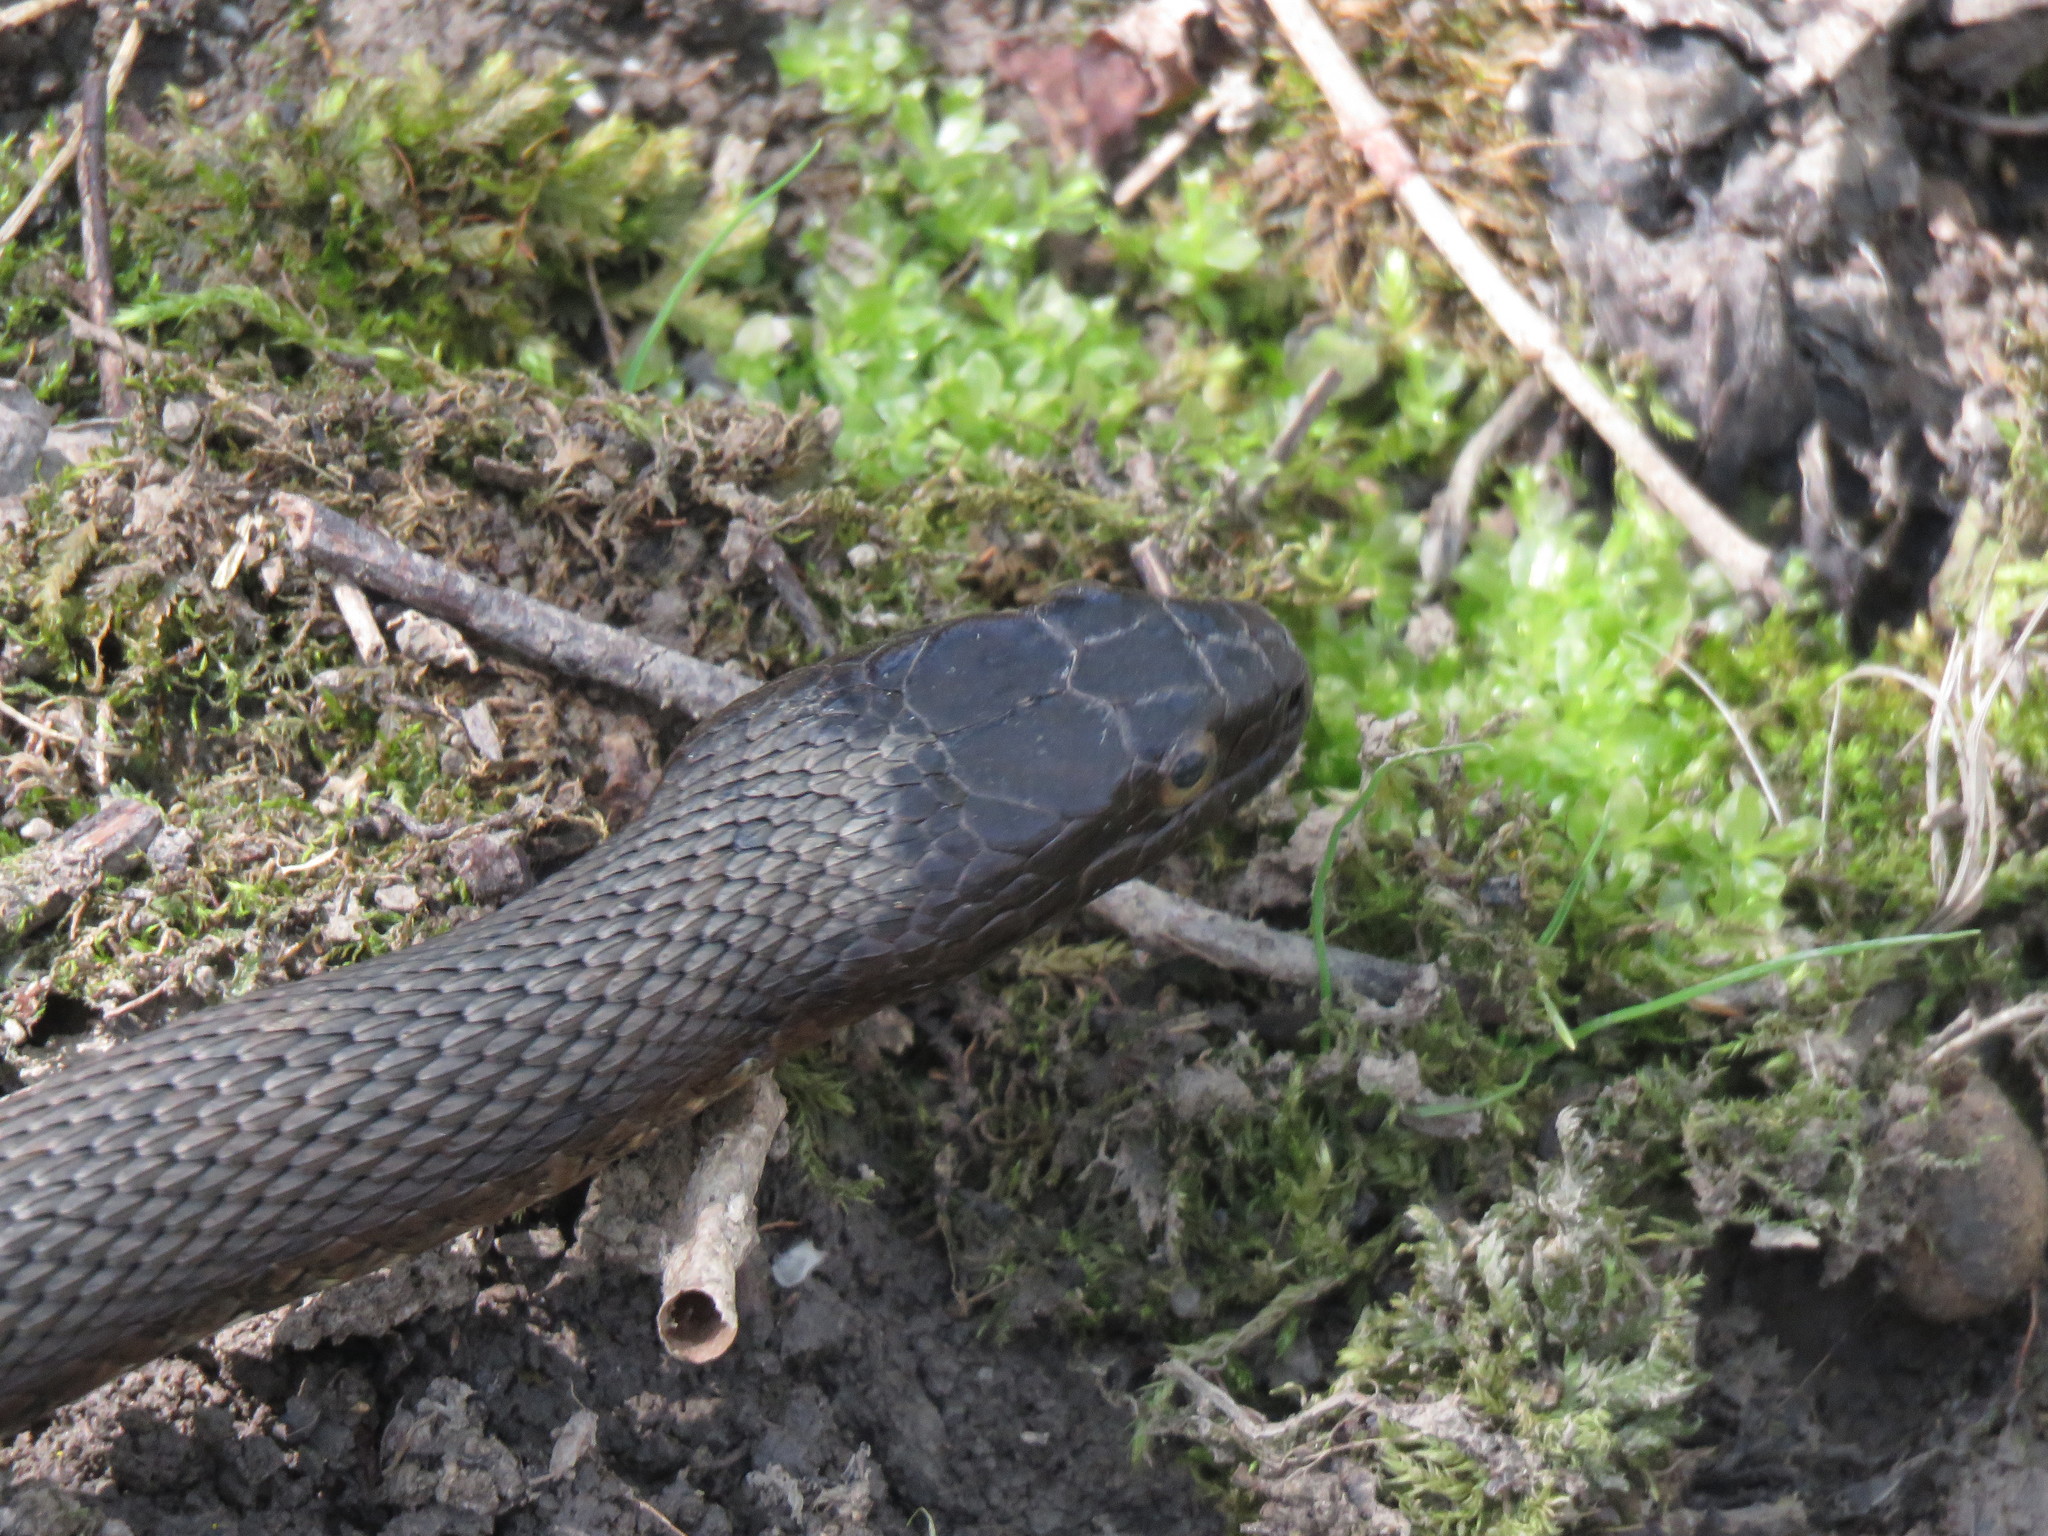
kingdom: Animalia
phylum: Chordata
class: Squamata
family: Colubridae
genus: Nerodia
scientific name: Nerodia sipedon
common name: Northern water snake
